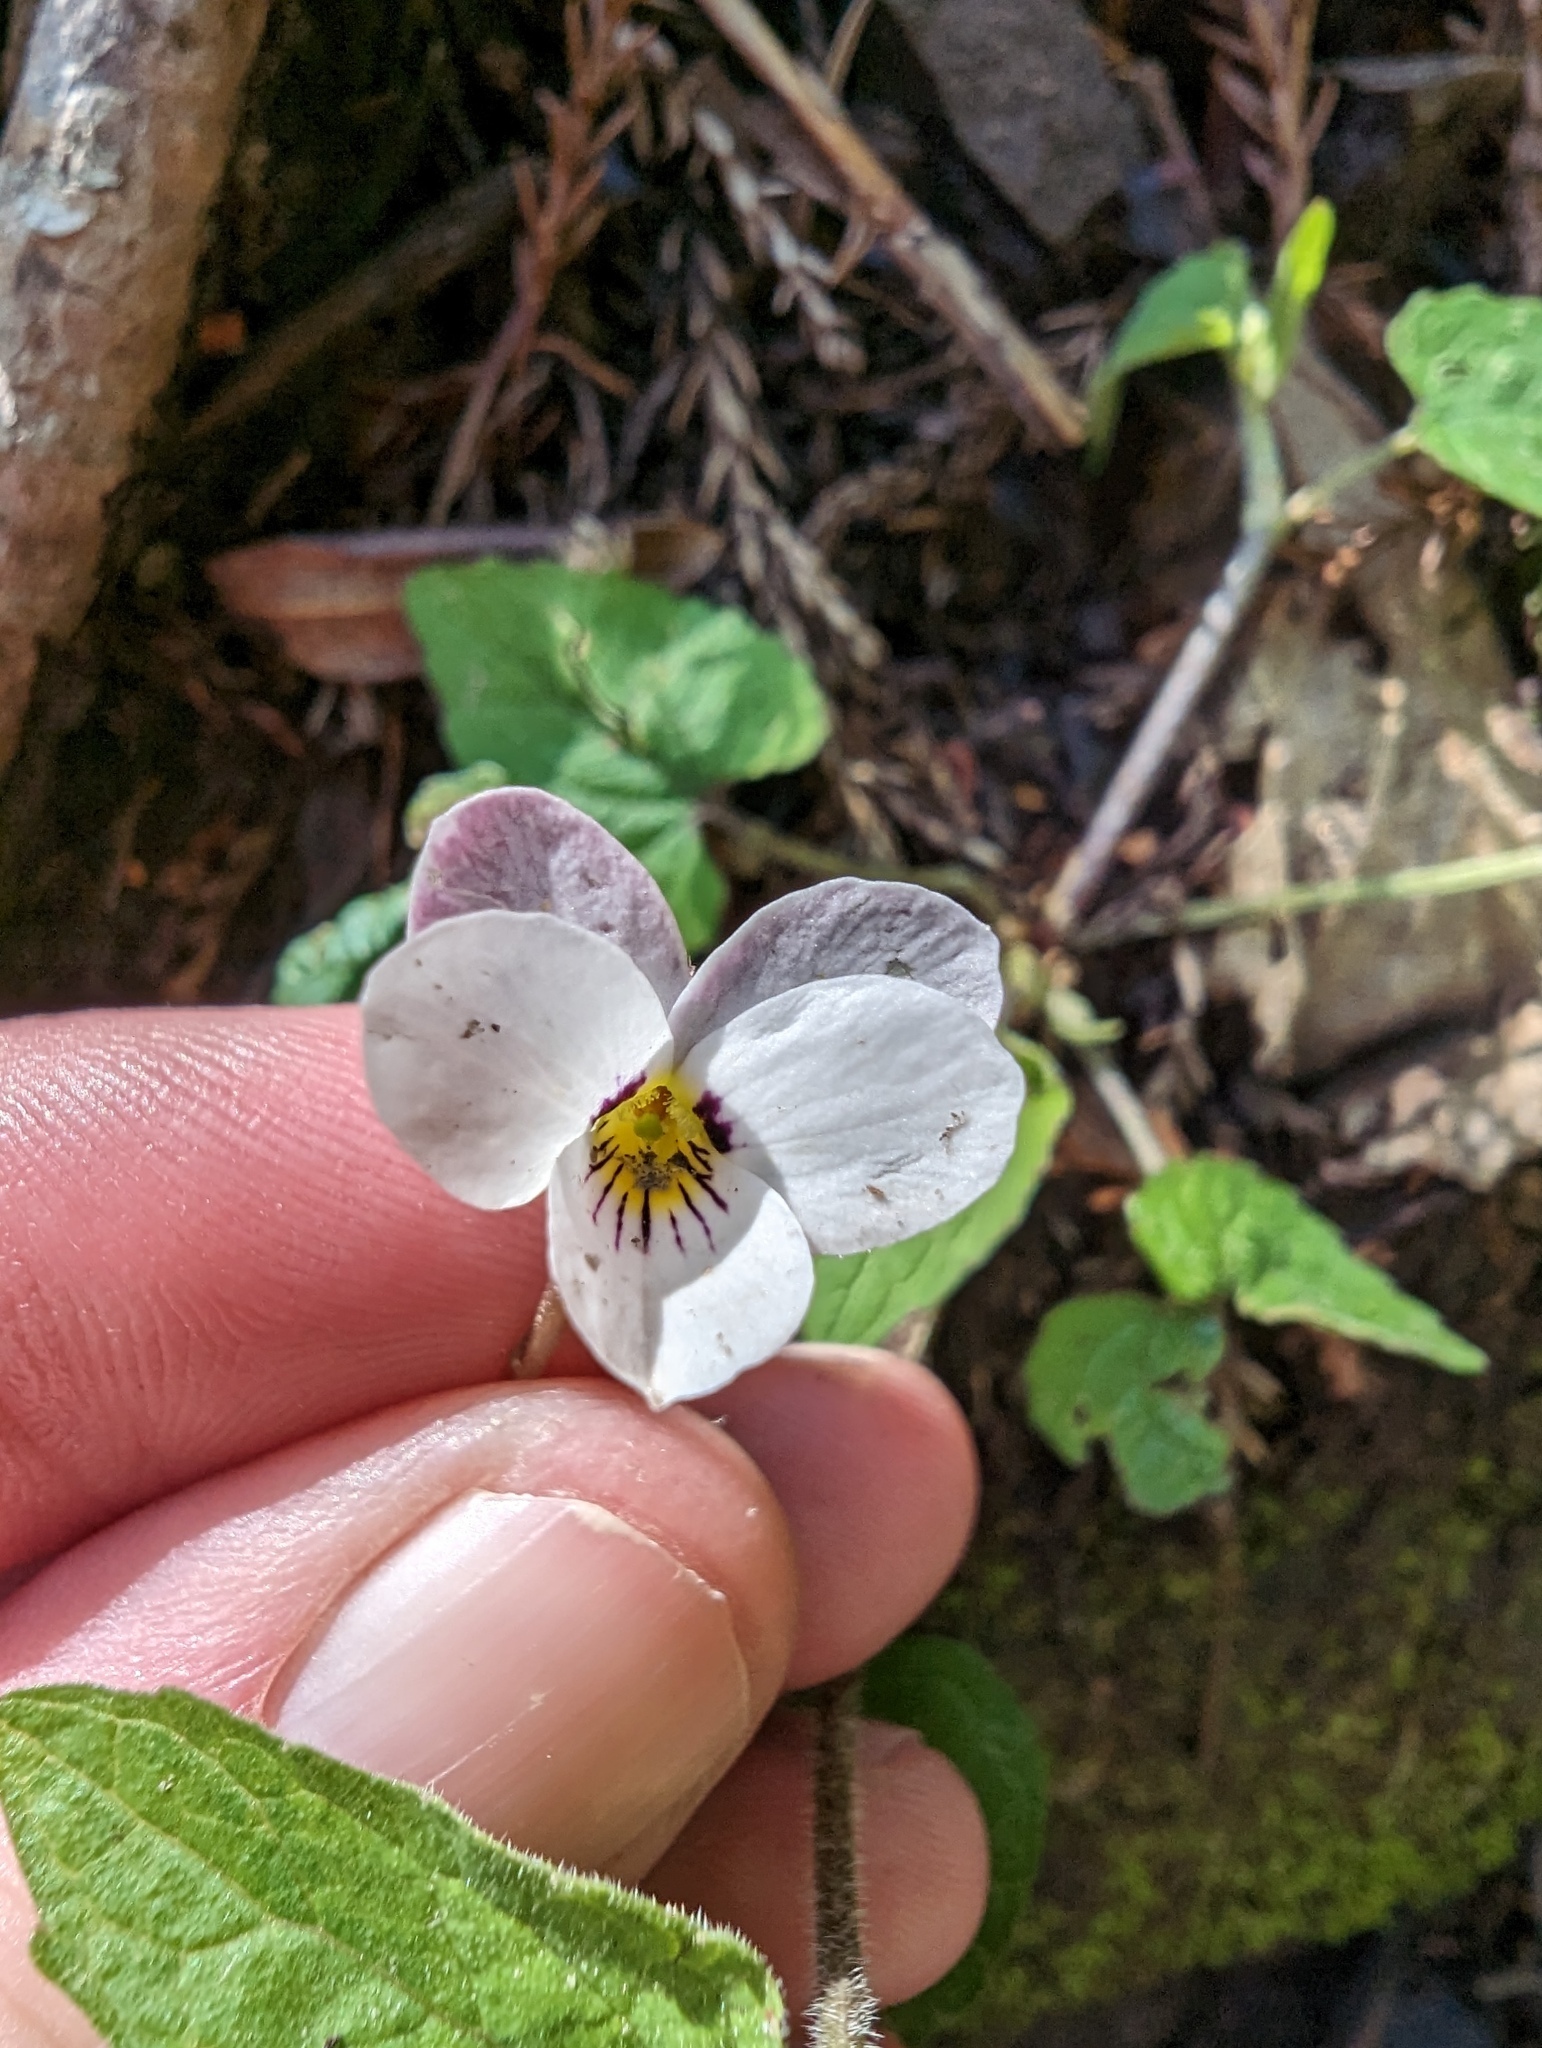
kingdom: Plantae
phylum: Tracheophyta
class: Magnoliopsida
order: Malpighiales
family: Violaceae
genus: Viola
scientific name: Viola ocellata
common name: Western heart's ease
